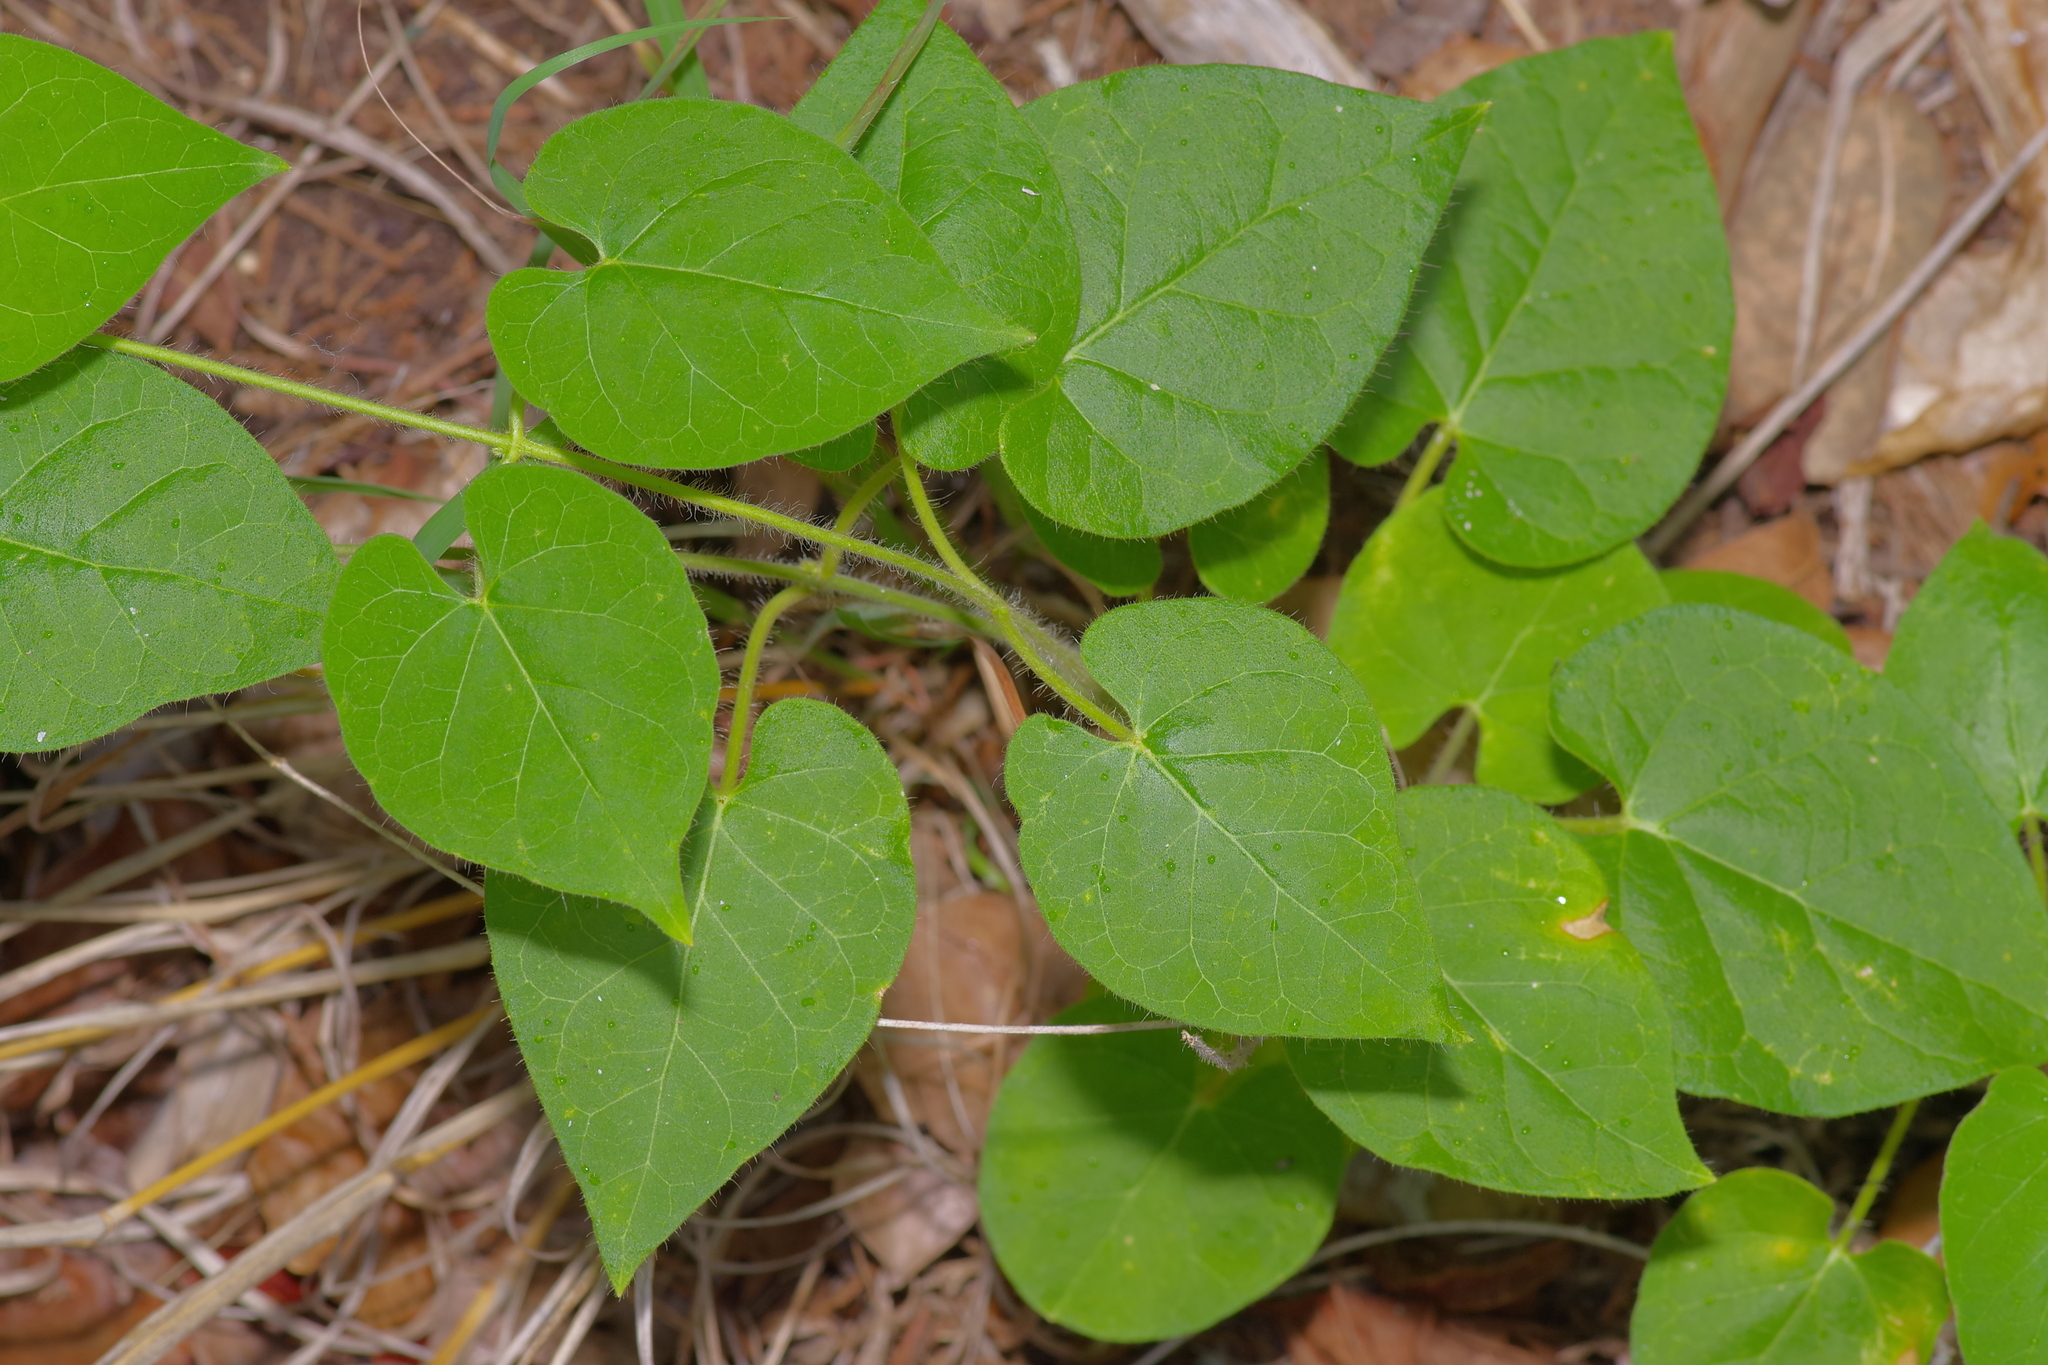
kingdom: Plantae
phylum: Tracheophyta
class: Magnoliopsida
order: Gentianales
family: Apocynaceae
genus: Dictyanthus
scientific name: Dictyanthus reticulatus
